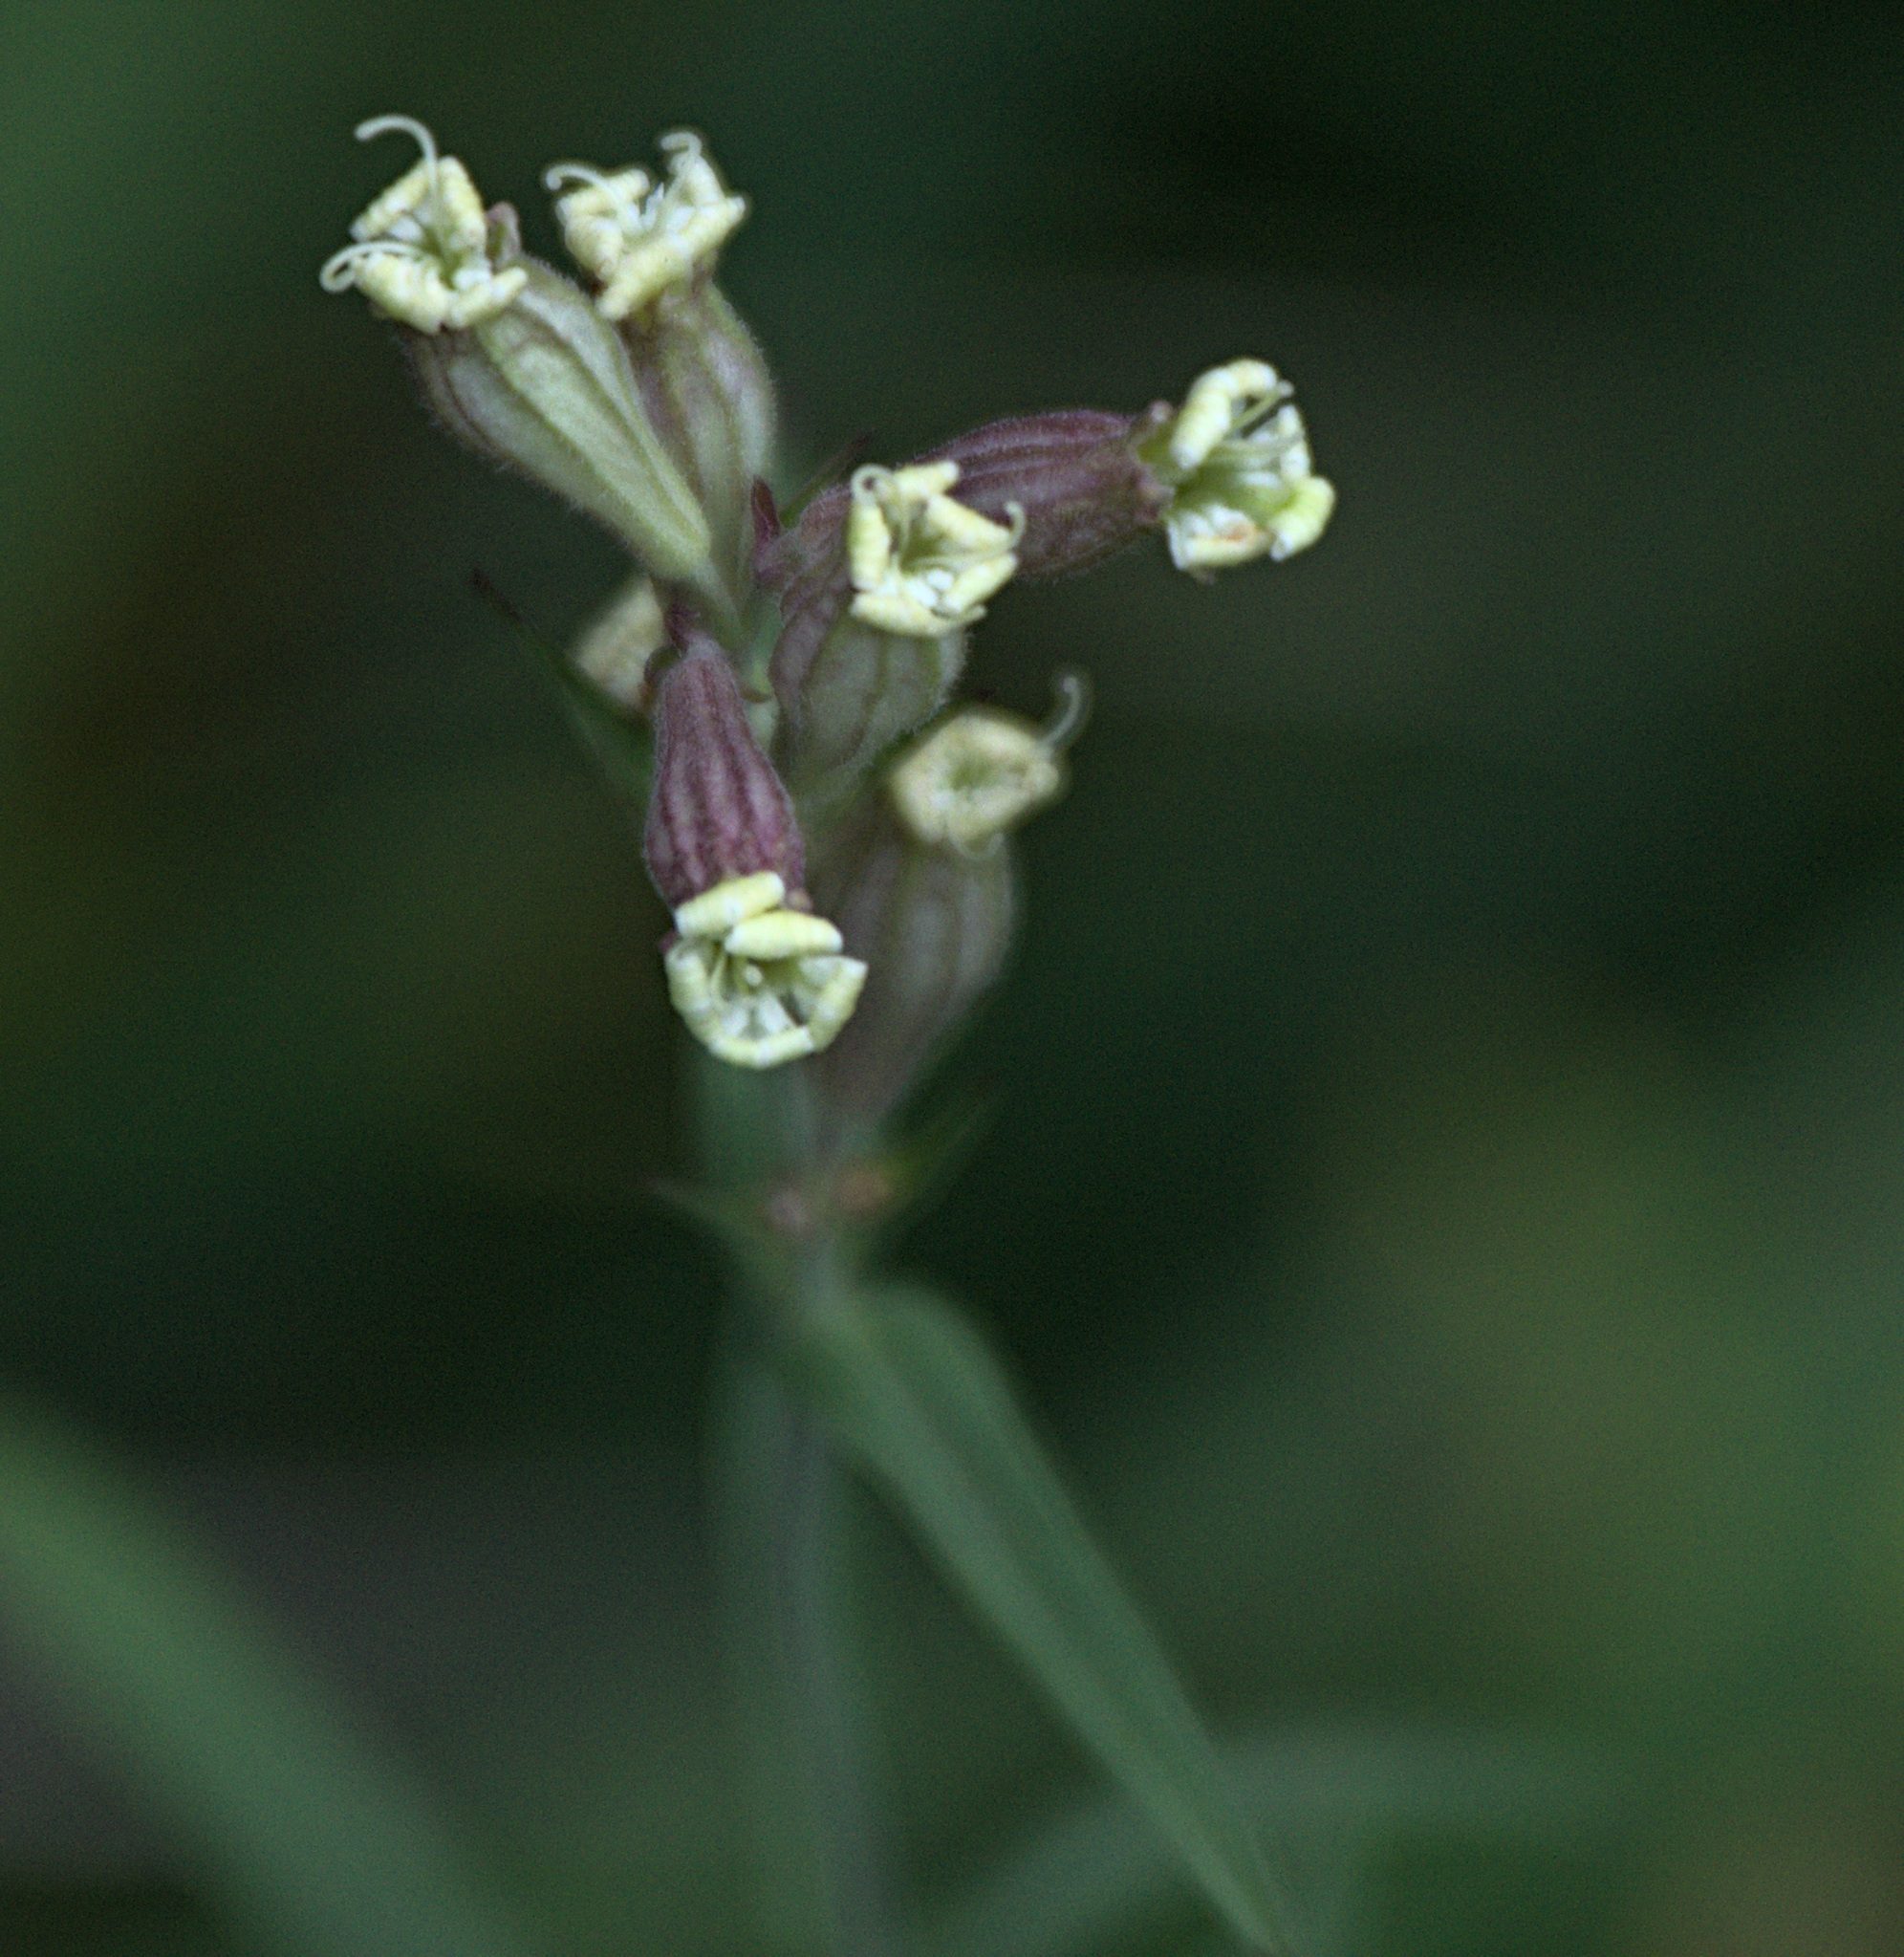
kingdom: Plantae
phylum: Tracheophyta
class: Magnoliopsida
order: Caryophyllales
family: Caryophyllaceae
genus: Silene
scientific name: Silene amoena
